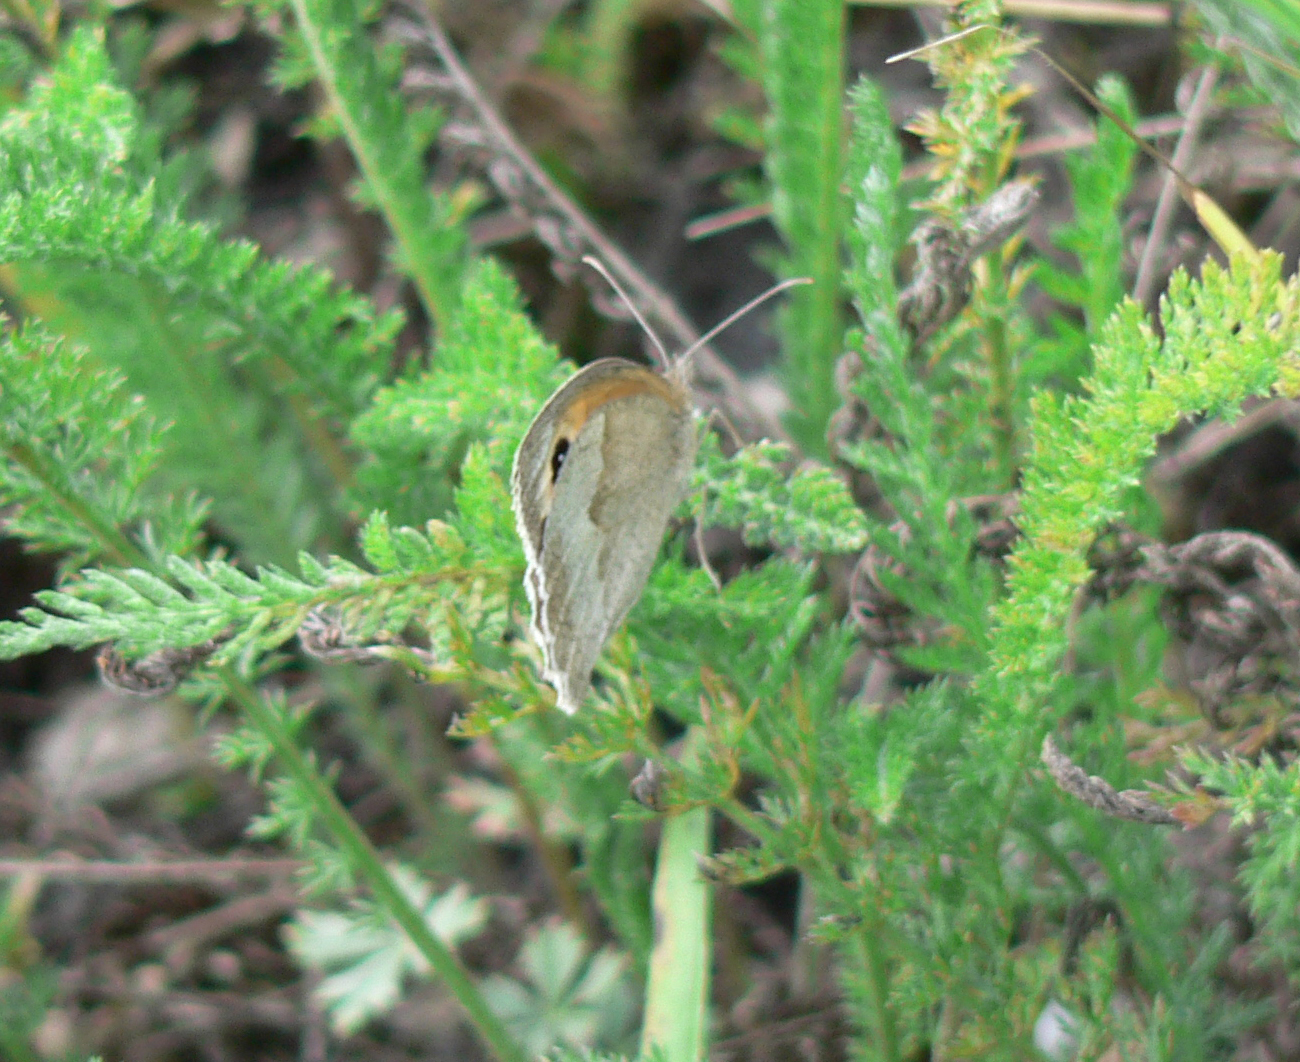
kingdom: Animalia
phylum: Arthropoda
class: Insecta
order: Lepidoptera
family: Nymphalidae
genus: Maniola
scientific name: Maniola jurtina
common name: Meadow brown
